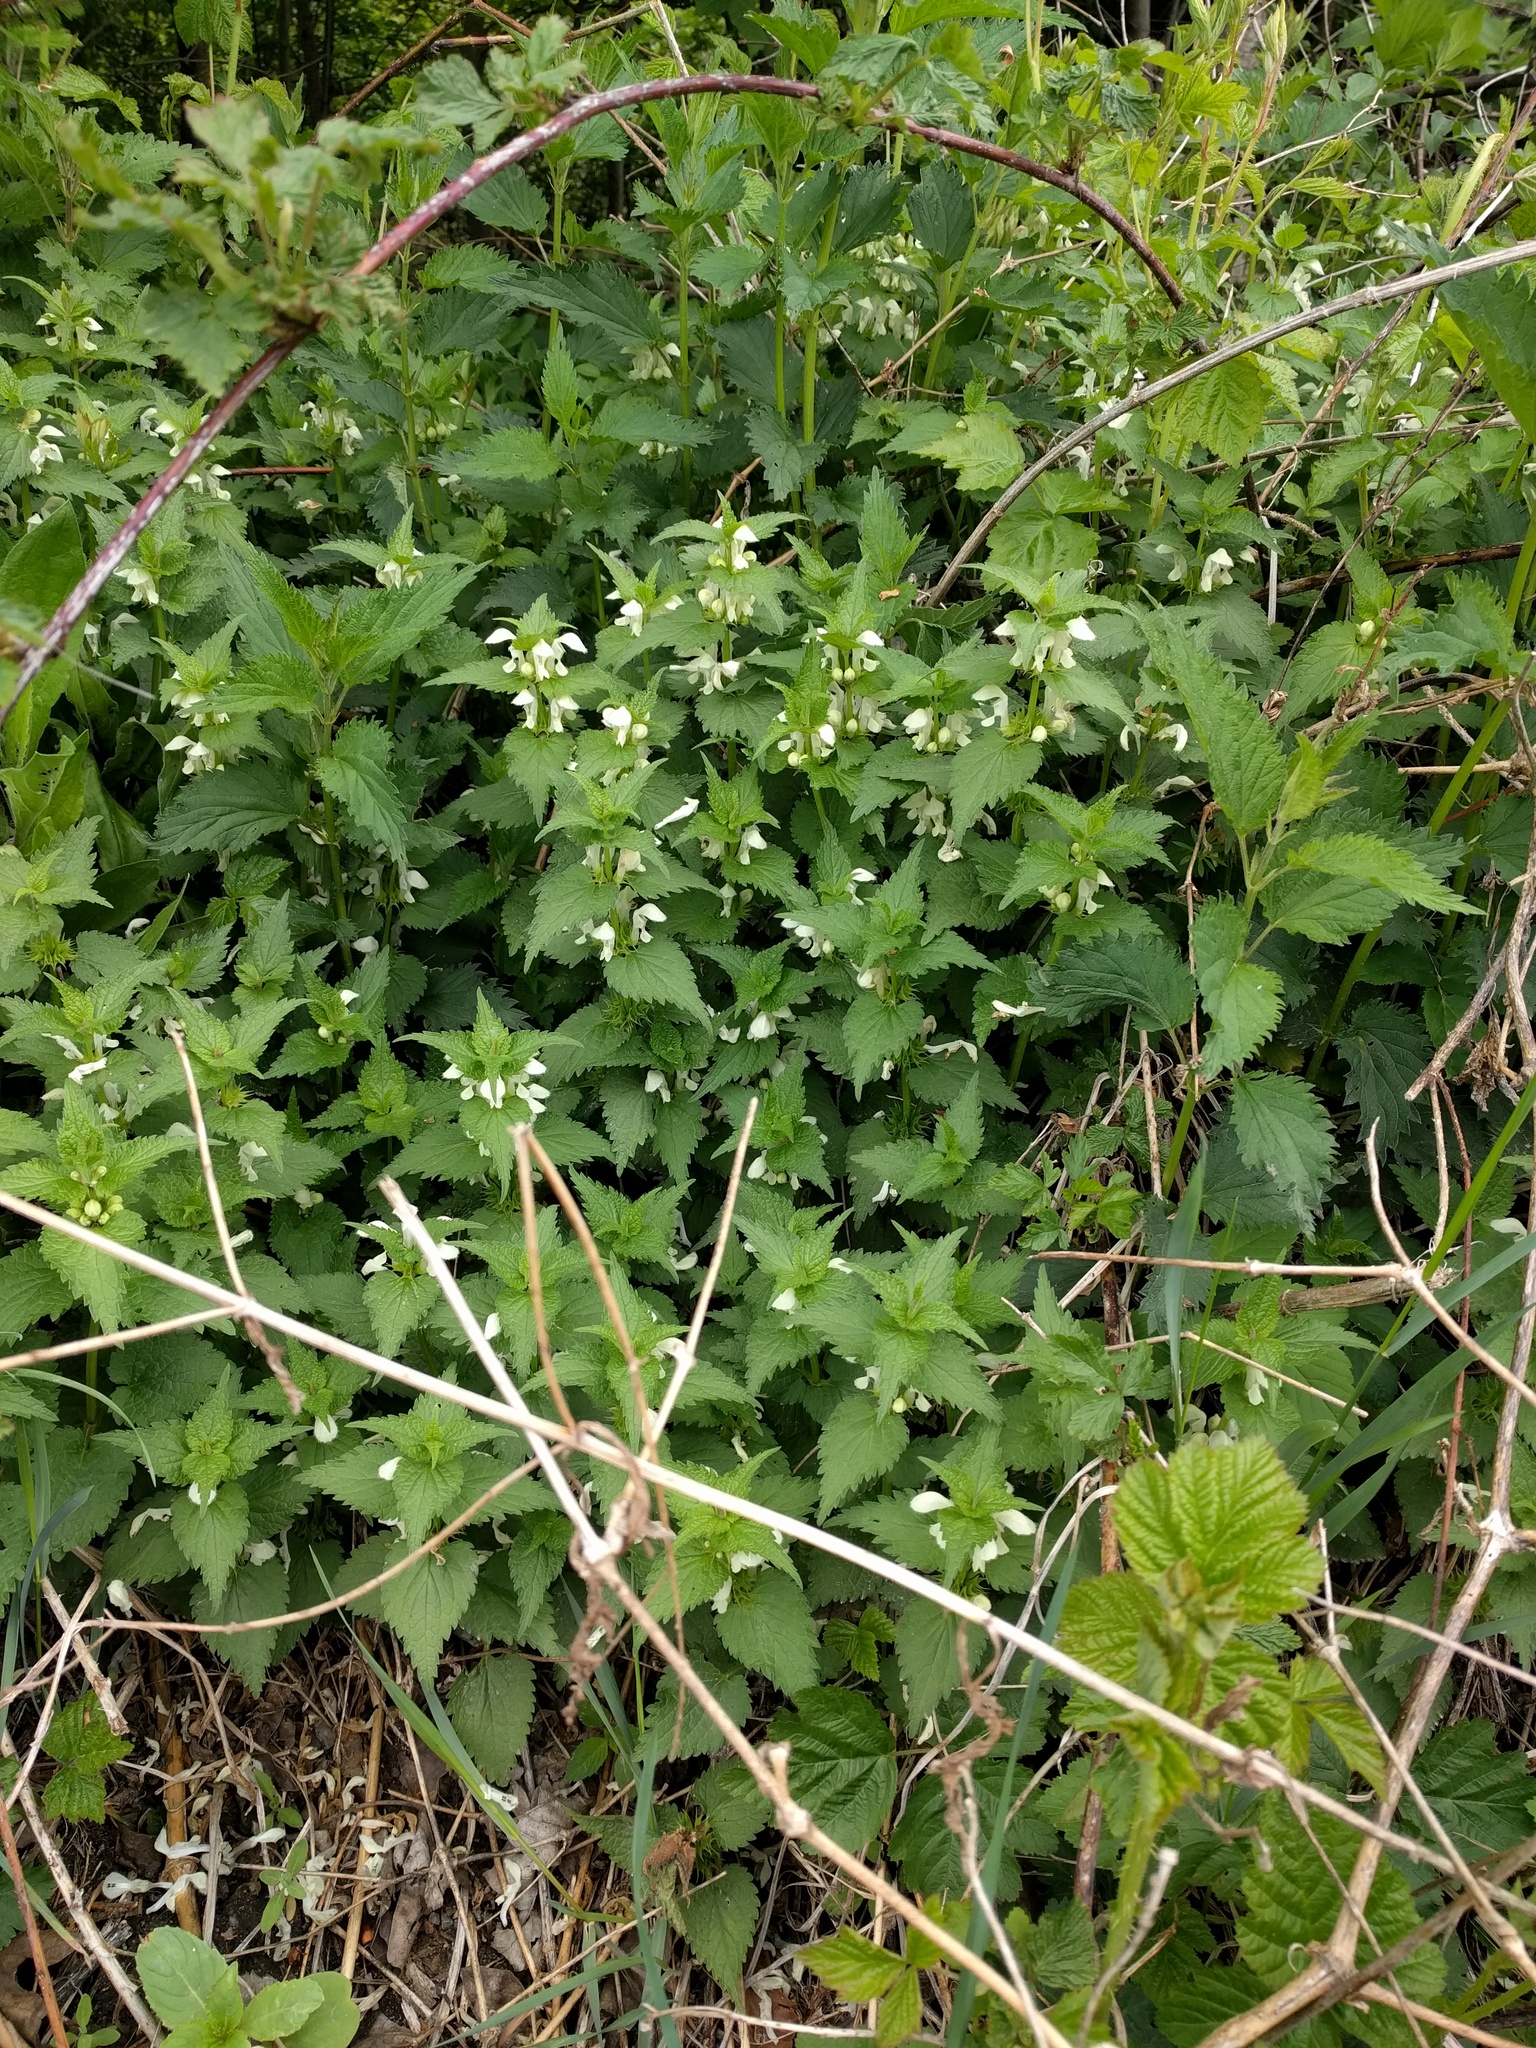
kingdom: Plantae
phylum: Tracheophyta
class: Magnoliopsida
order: Lamiales
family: Lamiaceae
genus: Lamium
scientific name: Lamium album
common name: White dead-nettle
